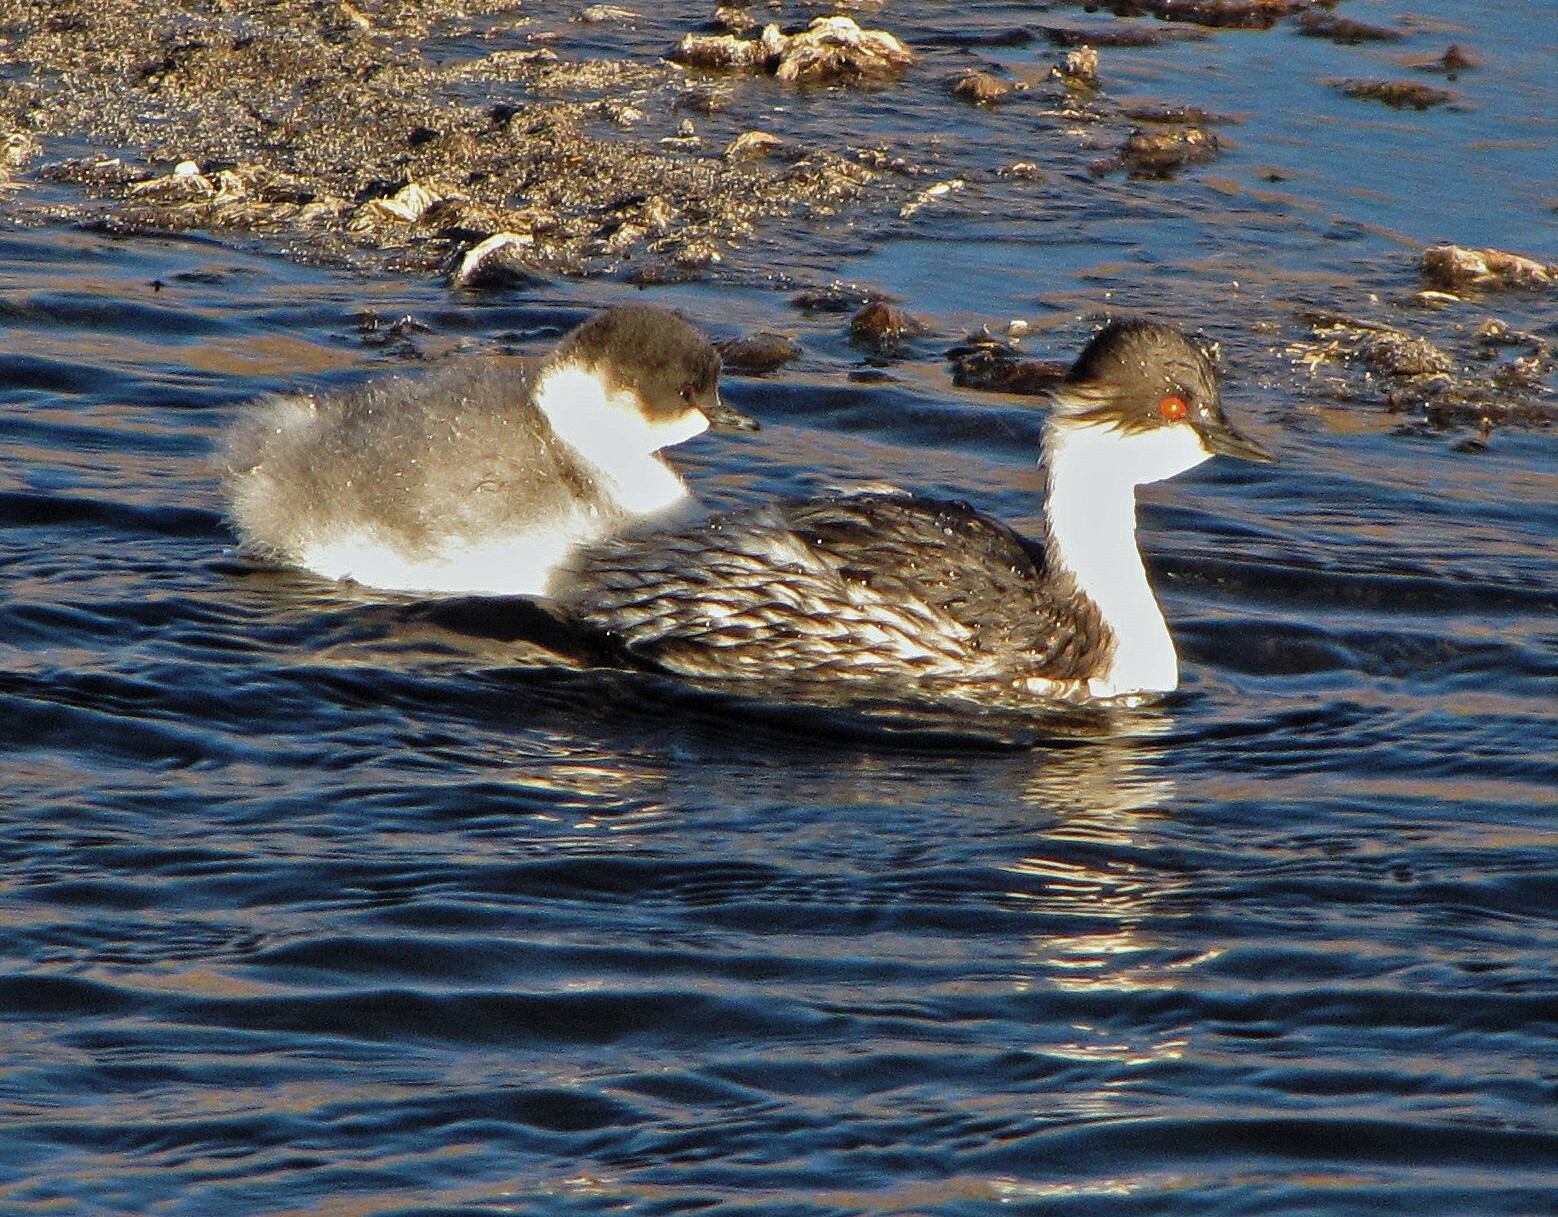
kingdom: Animalia
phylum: Chordata
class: Aves
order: Podicipediformes
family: Podicipedidae
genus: Podiceps
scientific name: Podiceps occipitalis
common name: Silvery grebe
